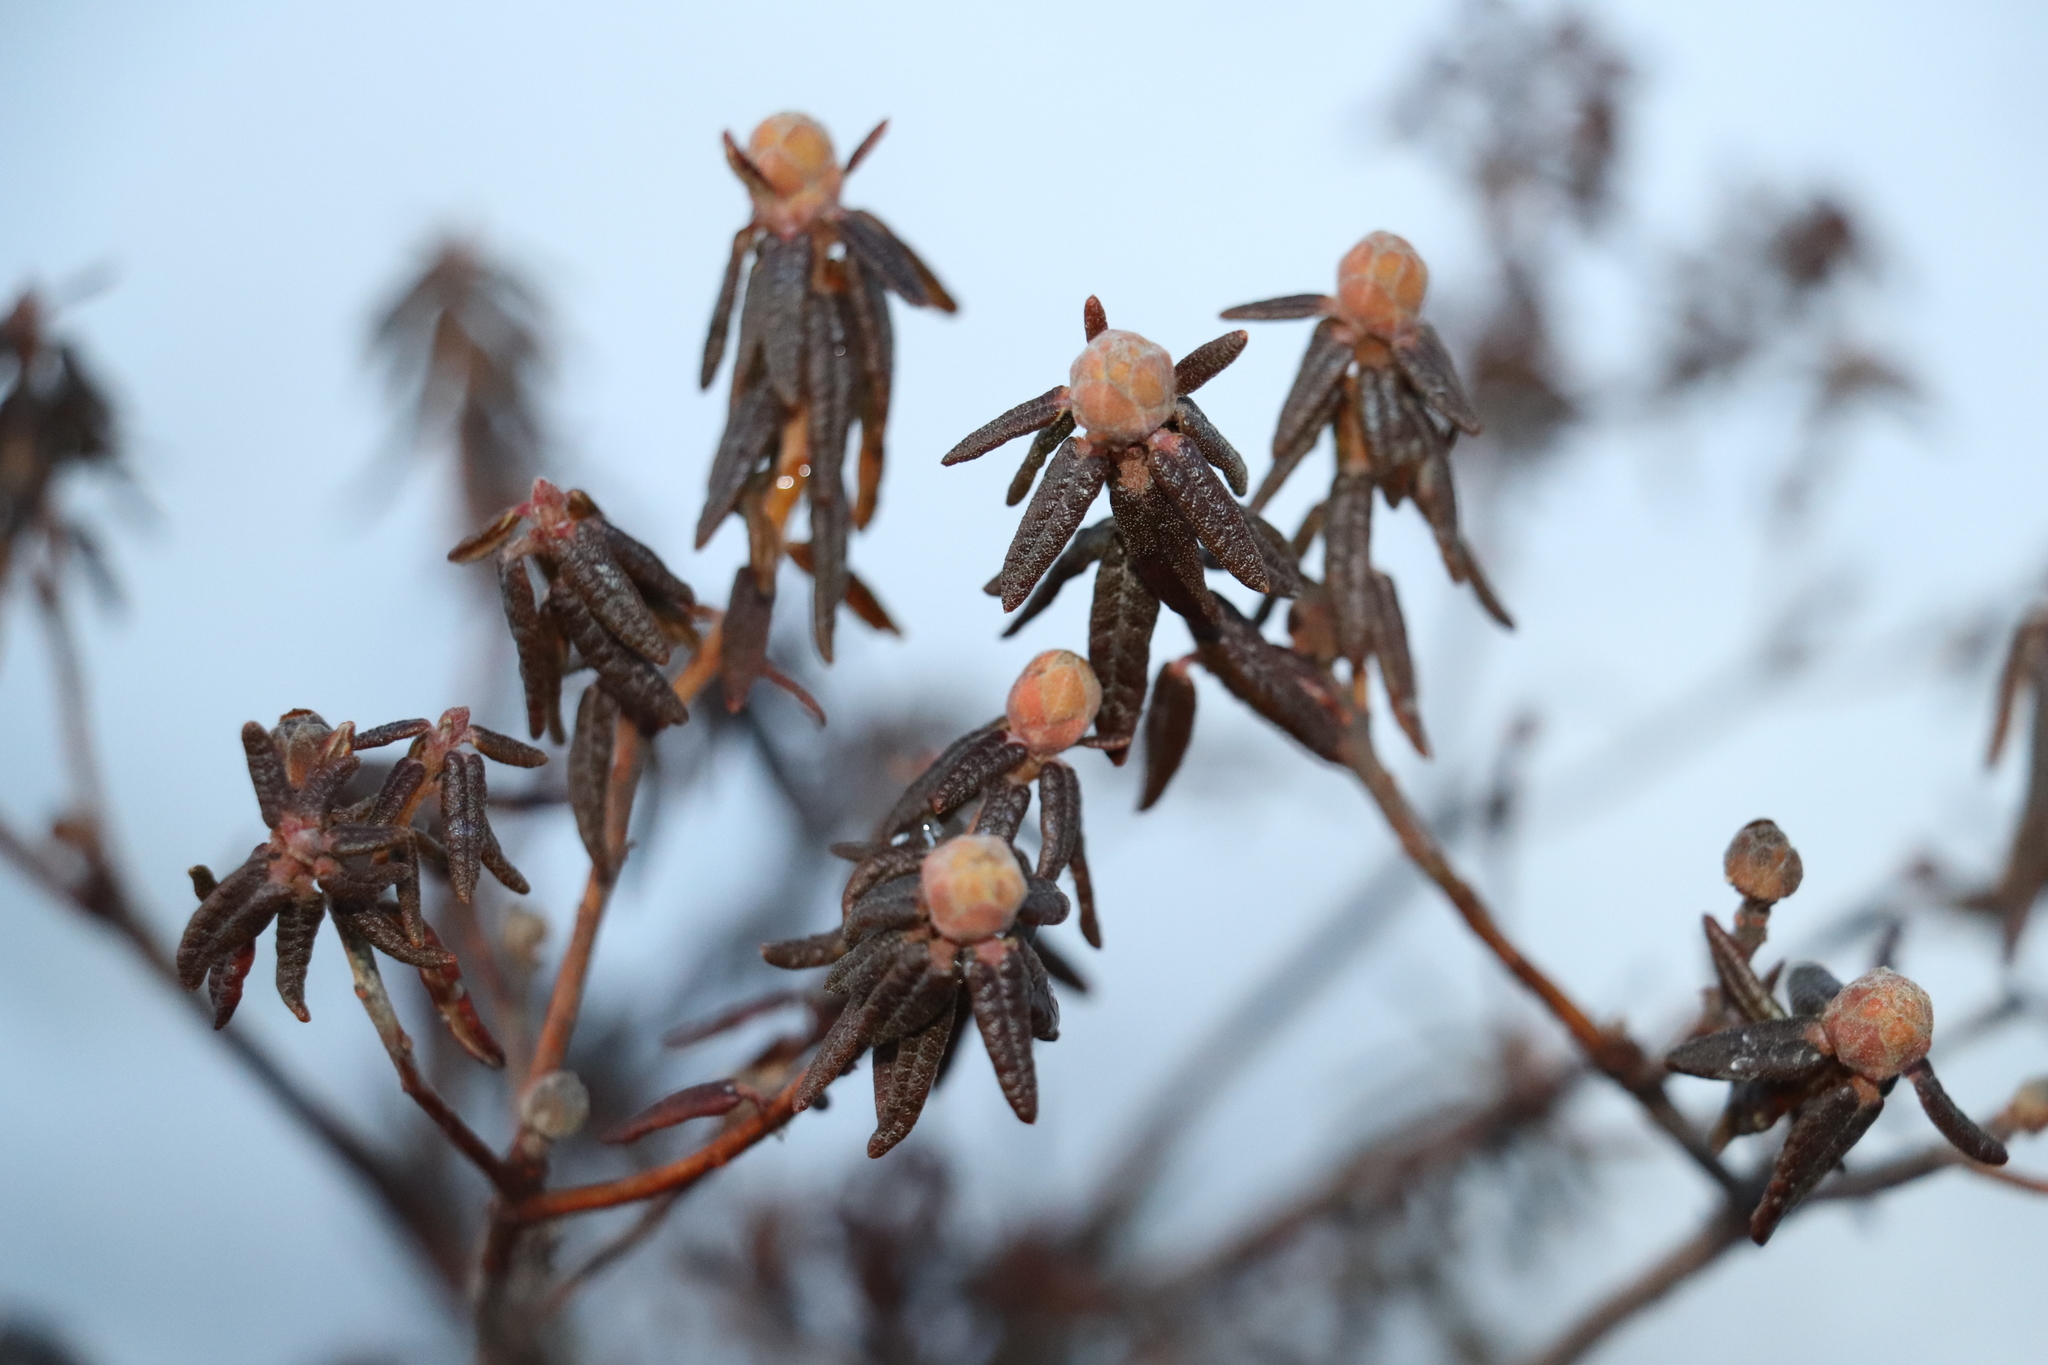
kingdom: Plantae
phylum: Tracheophyta
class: Magnoliopsida
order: Ericales
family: Ericaceae
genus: Rhododendron
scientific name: Rhododendron tomentosum
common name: Marsh labrador tea
